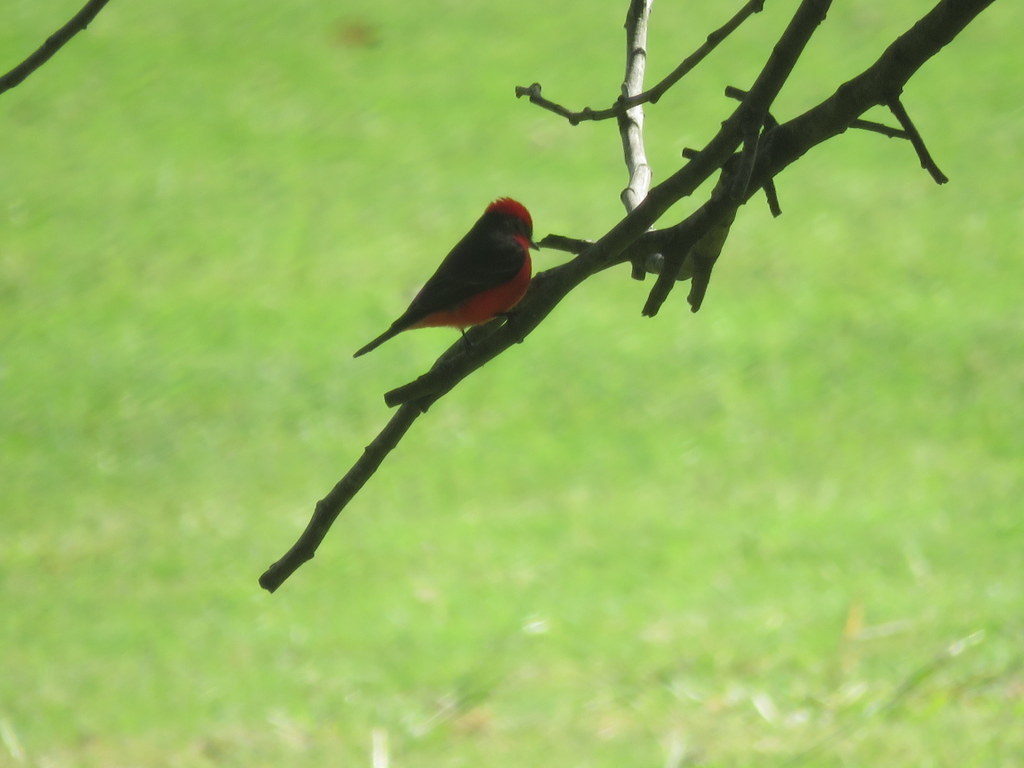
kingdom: Animalia
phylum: Chordata
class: Aves
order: Passeriformes
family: Tyrannidae
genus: Pyrocephalus
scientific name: Pyrocephalus rubinus
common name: Vermilion flycatcher
